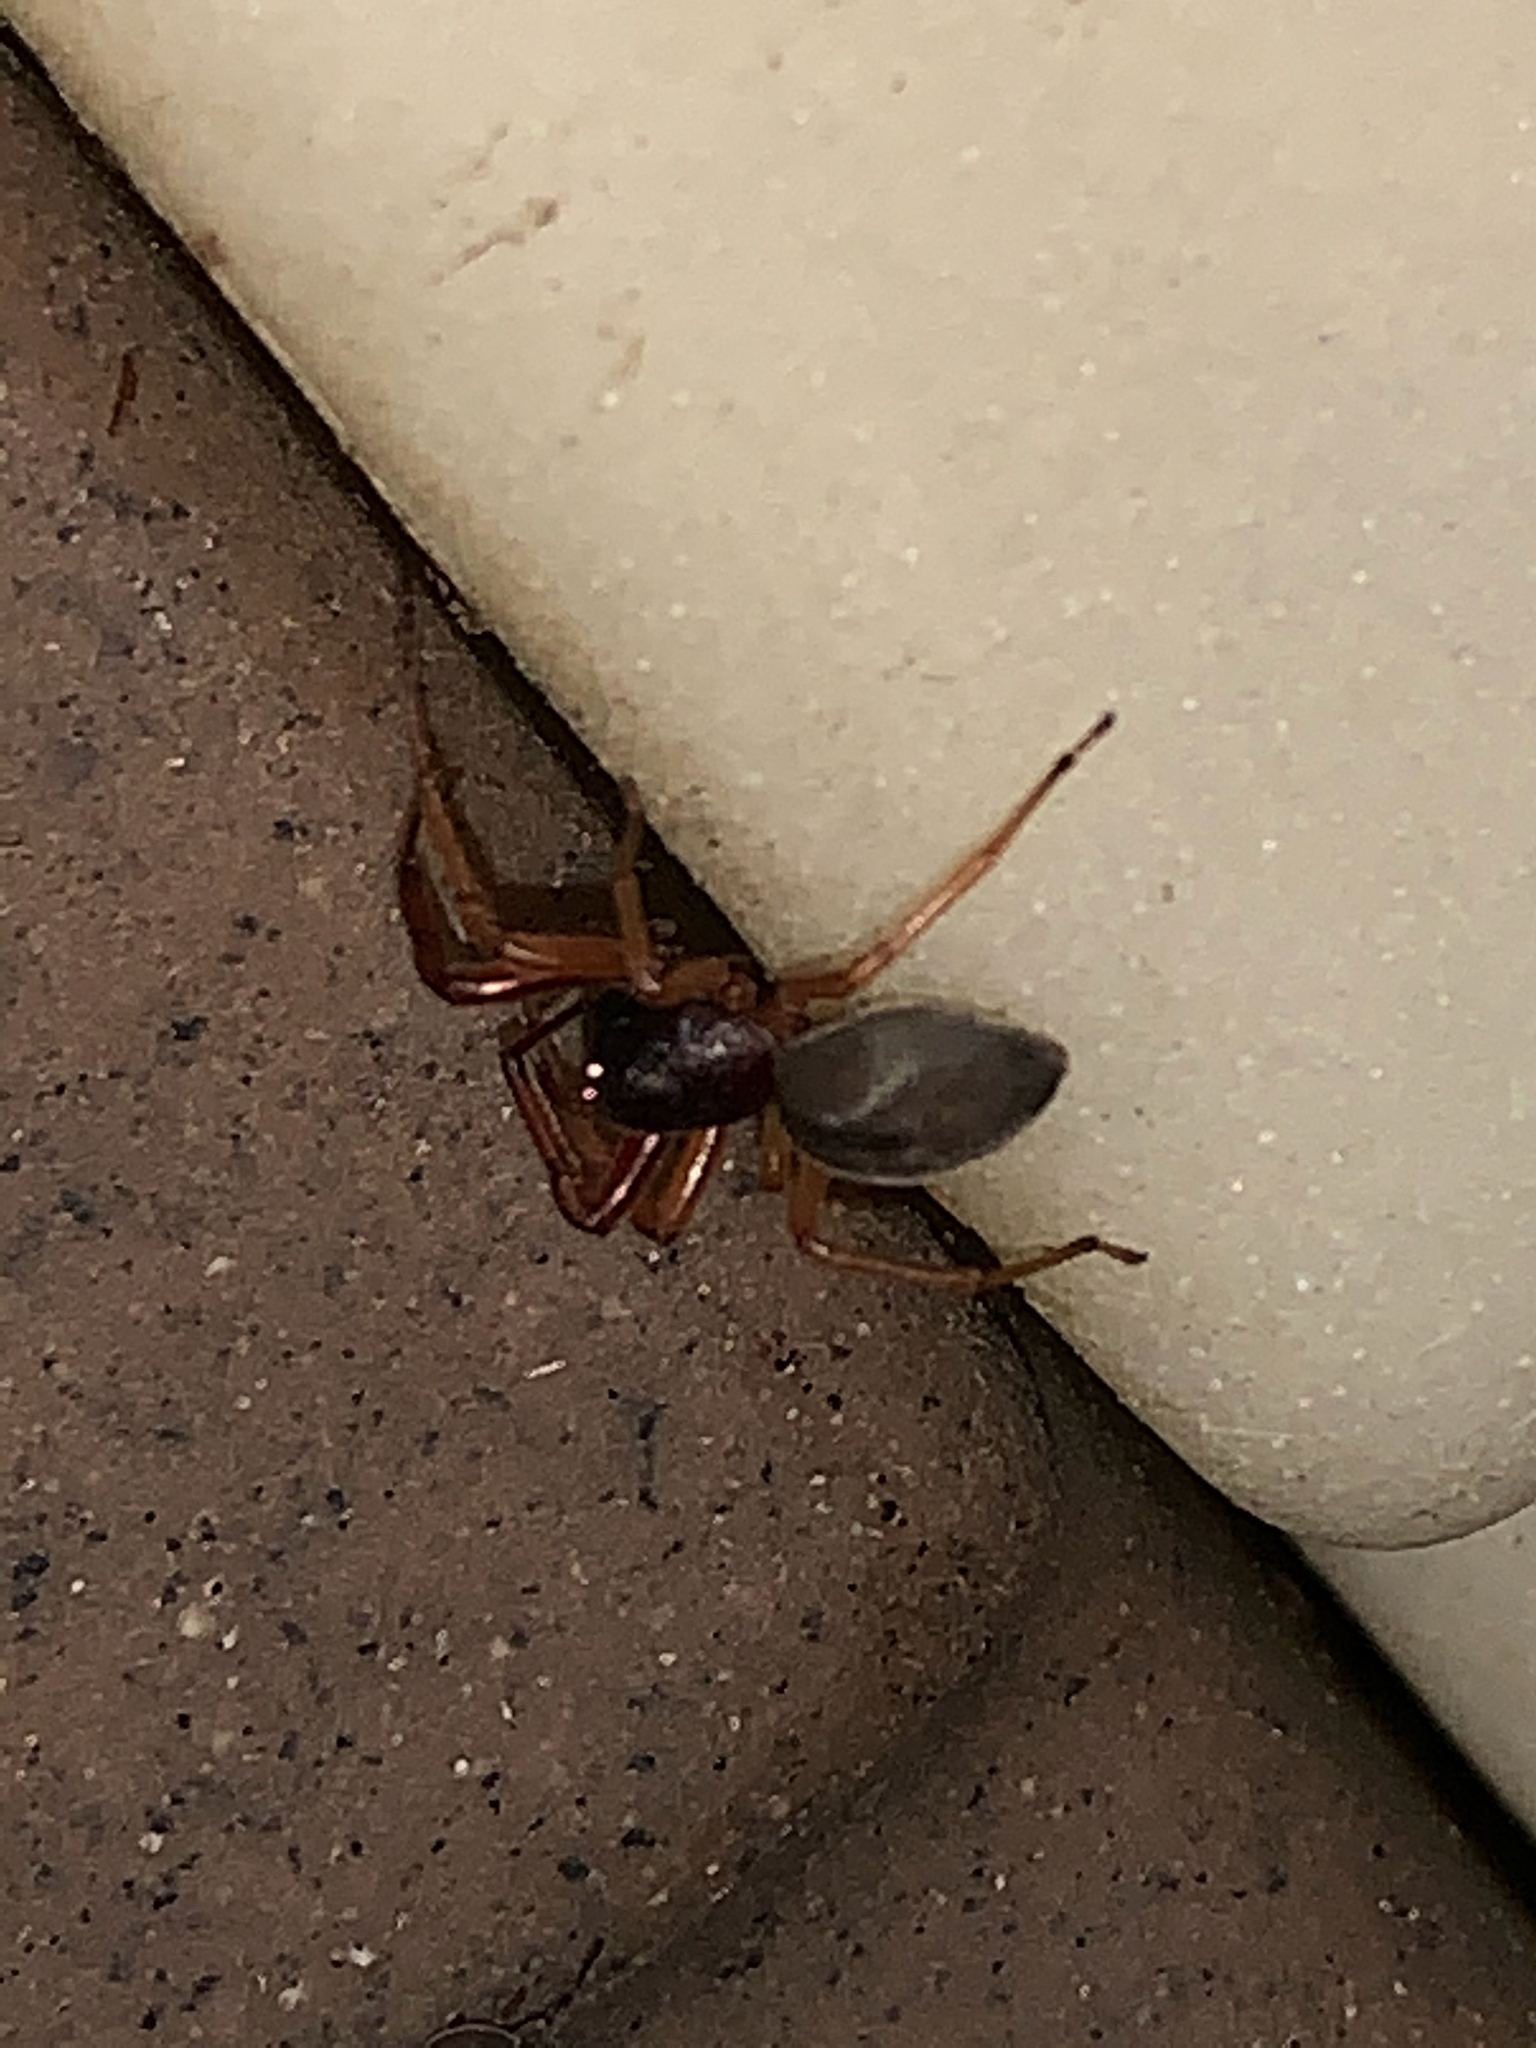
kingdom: Animalia
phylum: Arthropoda
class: Arachnida
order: Araneae
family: Trachelidae
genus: Trachelas
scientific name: Trachelas tranquillus
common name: Broad-faced sac spider
